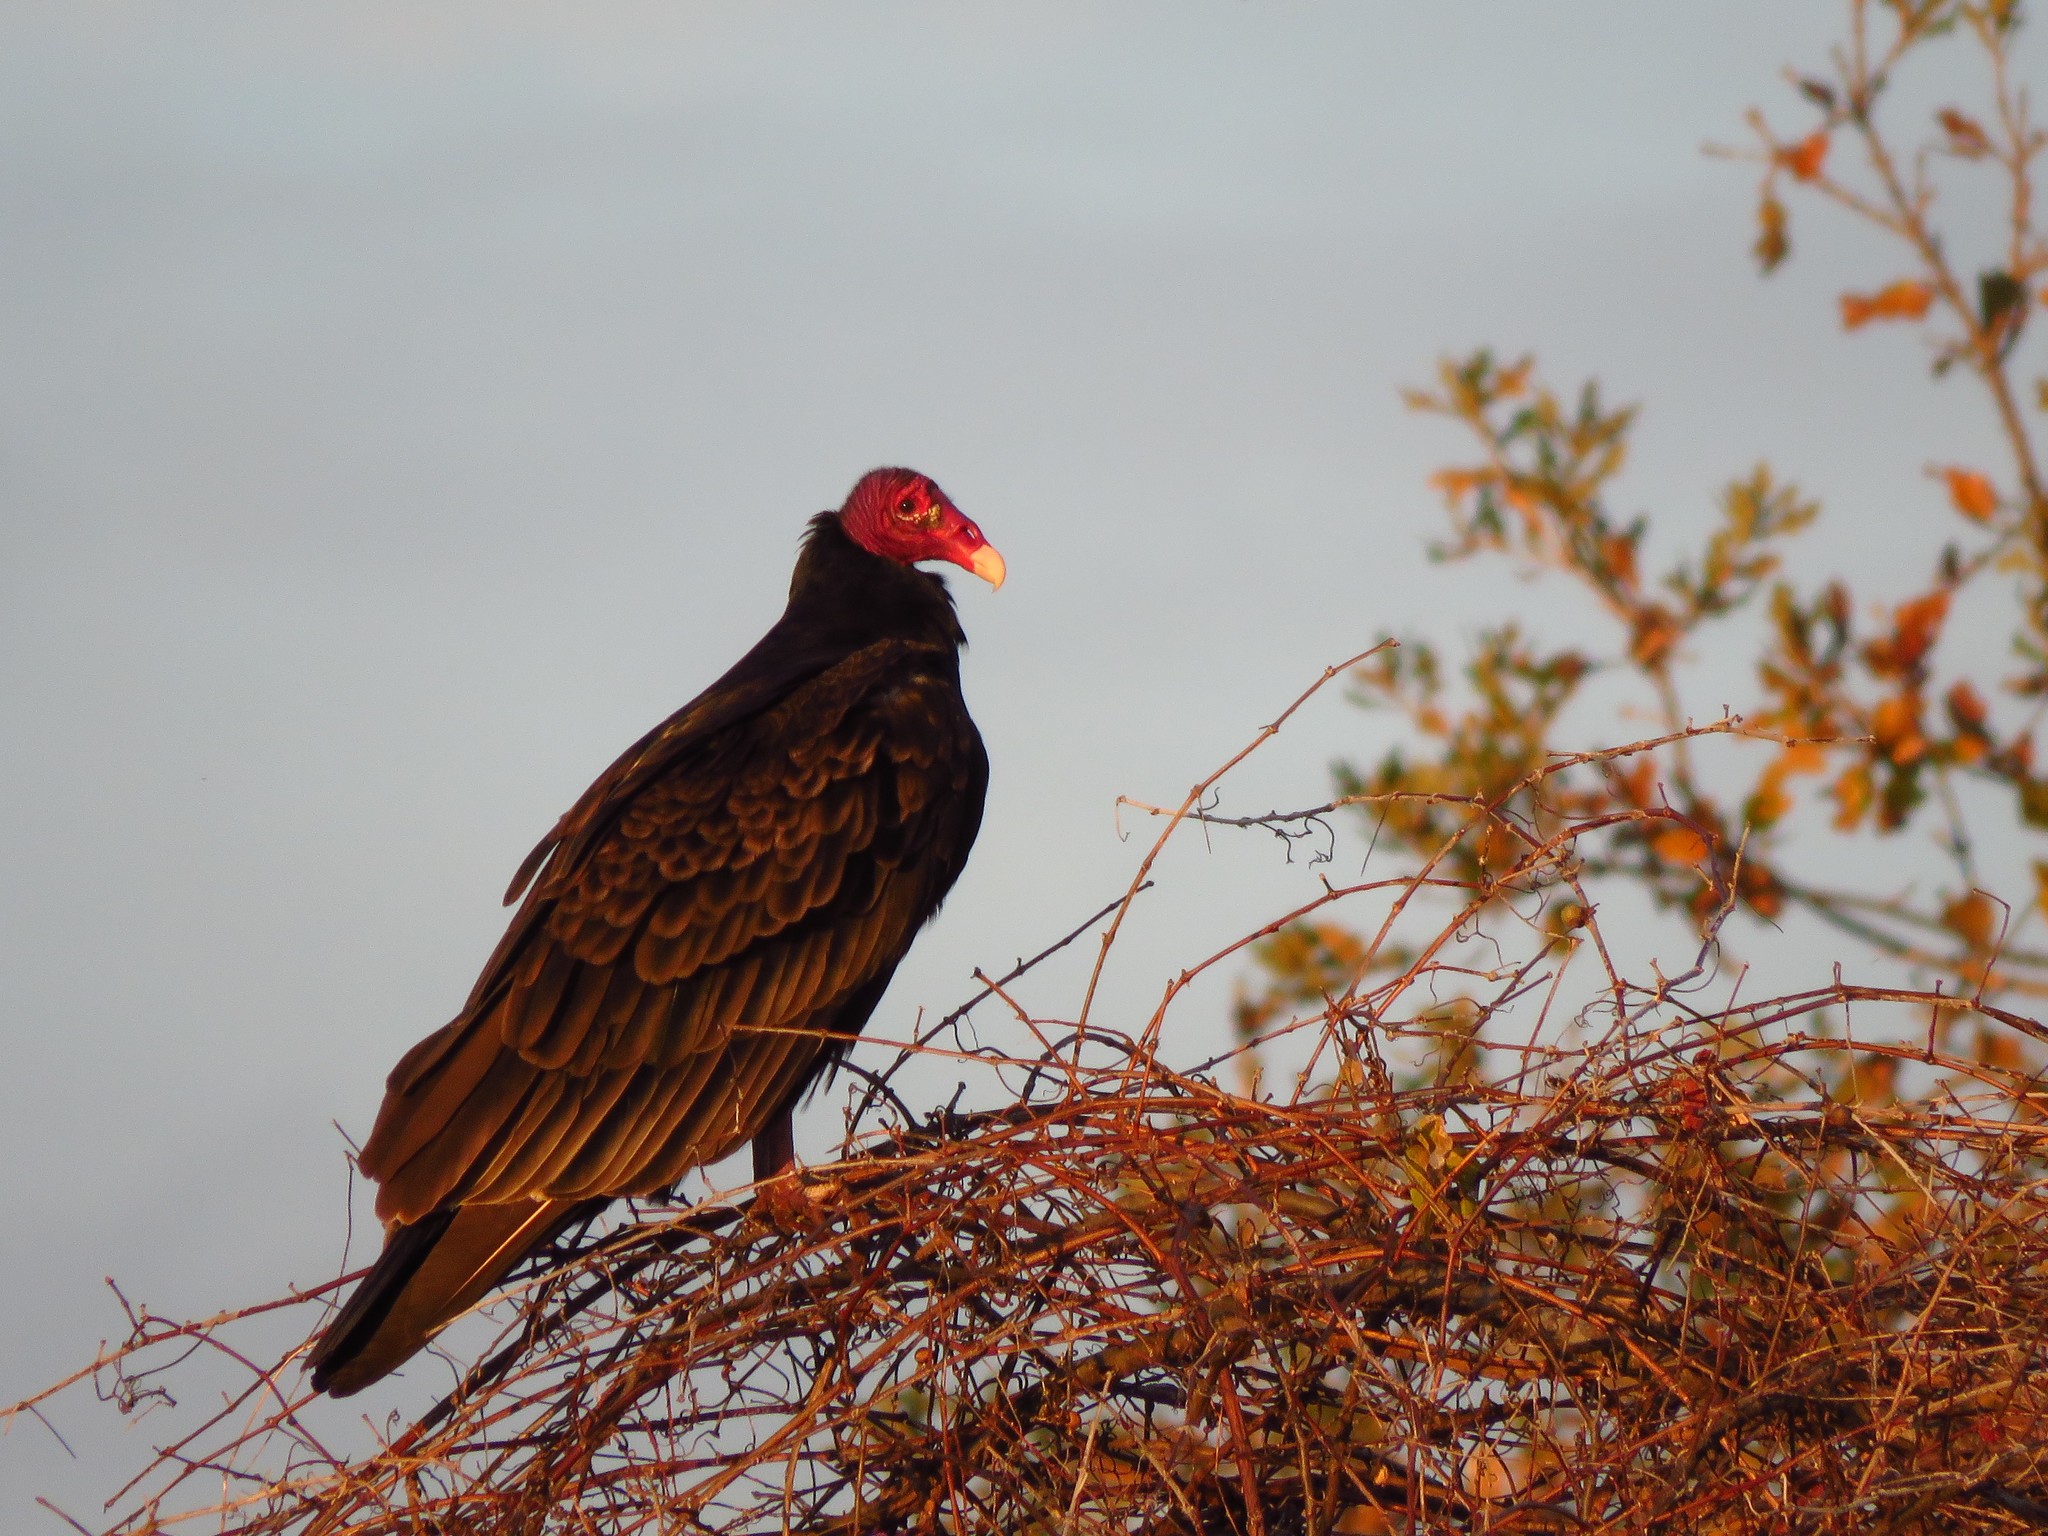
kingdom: Animalia
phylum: Chordata
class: Aves
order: Accipitriformes
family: Cathartidae
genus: Cathartes
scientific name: Cathartes aura
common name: Turkey vulture
